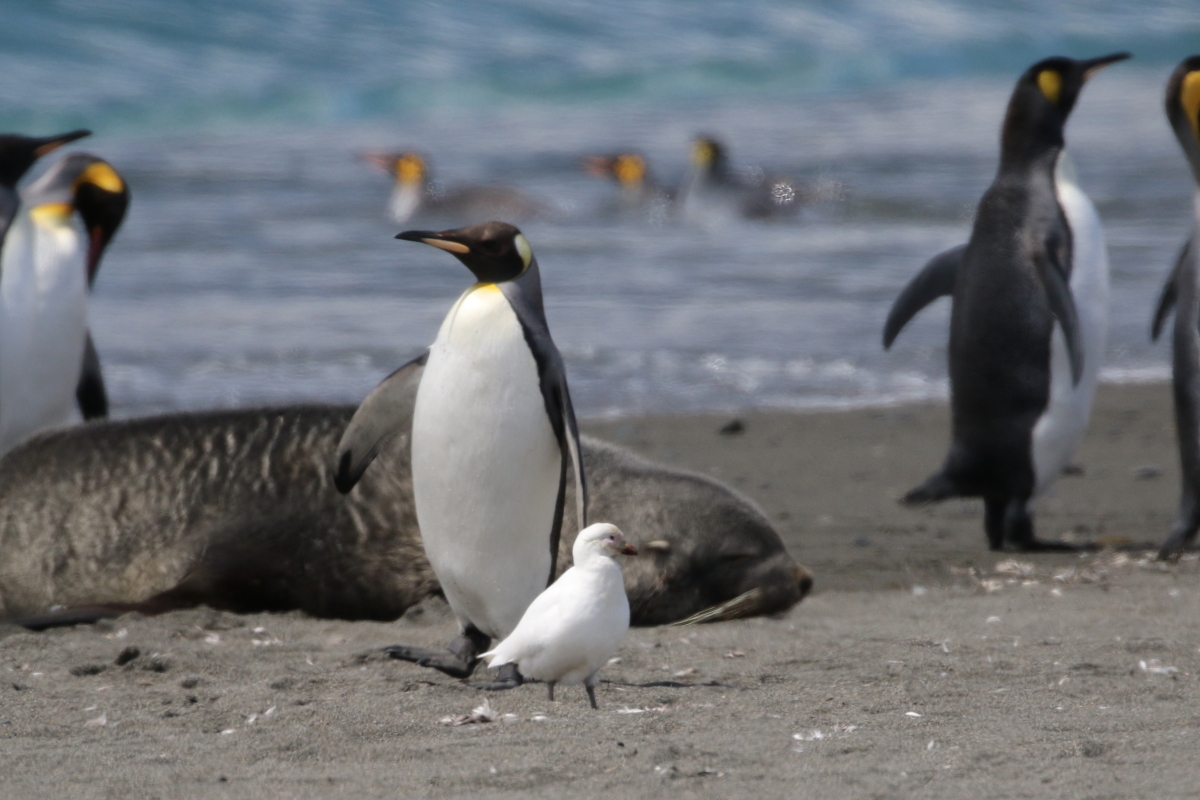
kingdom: Animalia
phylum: Chordata
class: Aves
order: Sphenisciformes
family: Spheniscidae
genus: Aptenodytes
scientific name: Aptenodytes patagonicus
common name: King penguin
